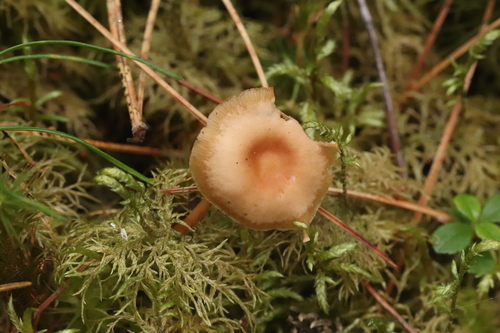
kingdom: Fungi
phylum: Basidiomycota
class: Agaricomycetes
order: Agaricales
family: Omphalotaceae
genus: Gymnopus
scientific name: Gymnopus dryophilus
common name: Penny top
